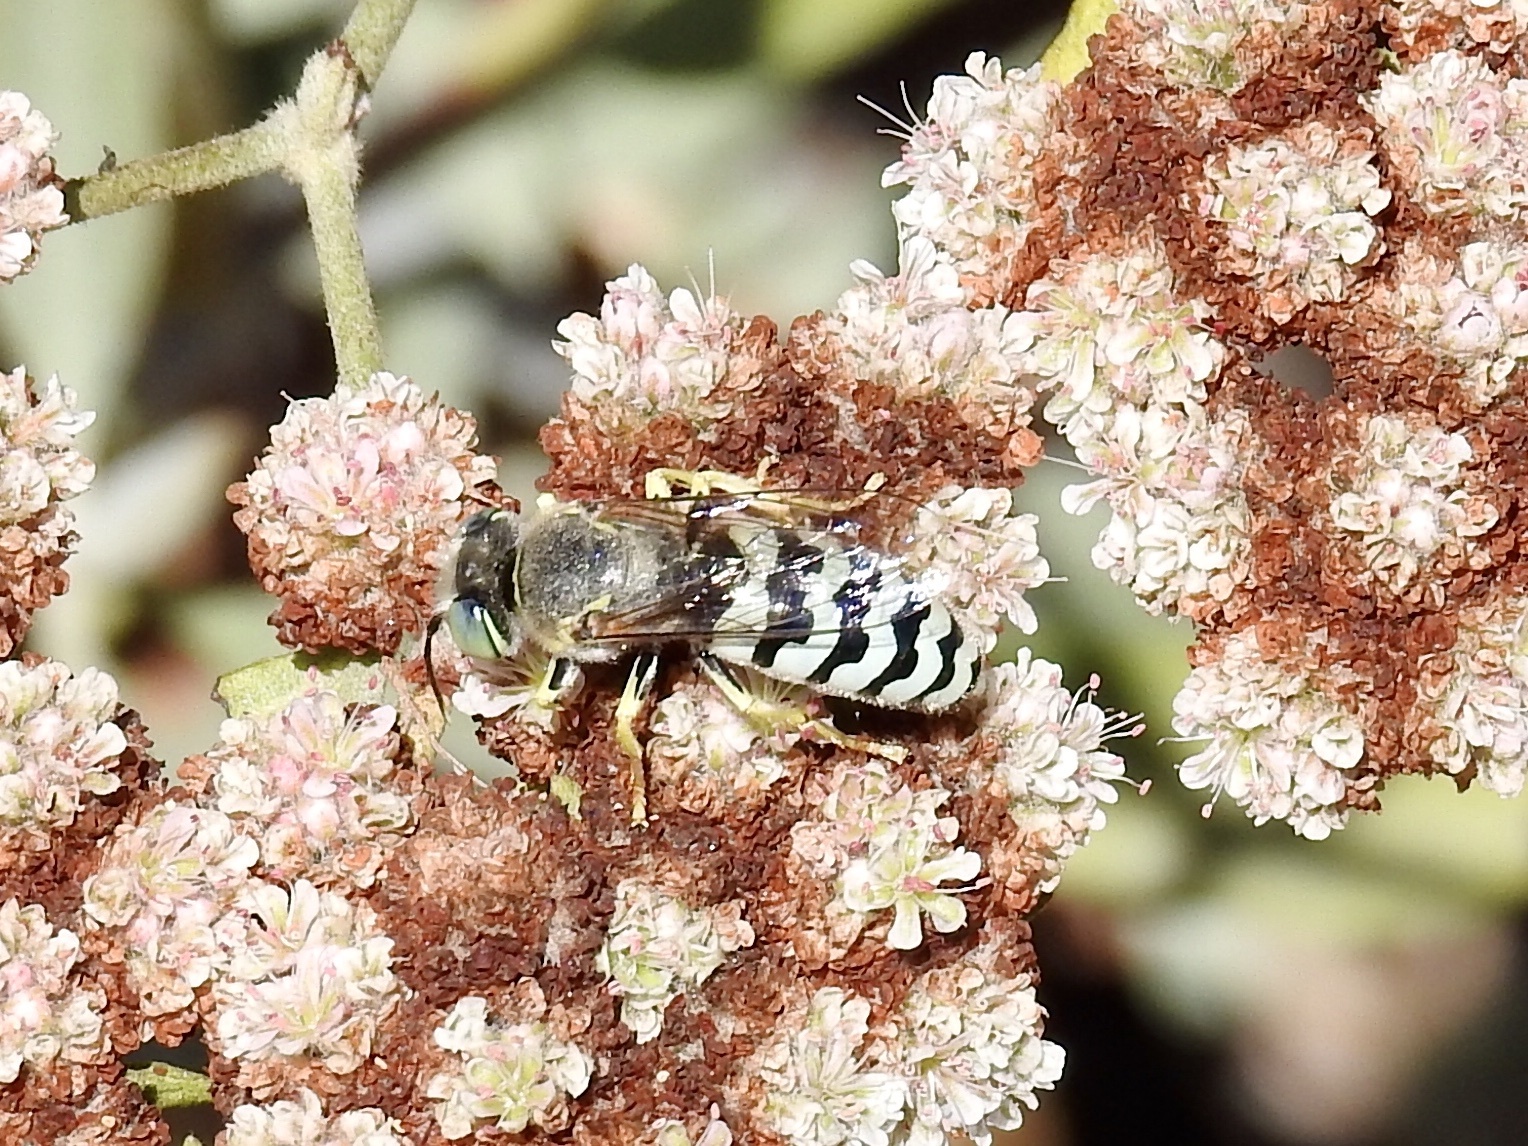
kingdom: Animalia
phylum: Arthropoda
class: Insecta
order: Hymenoptera
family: Crabronidae
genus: Bembix
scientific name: Bembix americana
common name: American sand wasp
